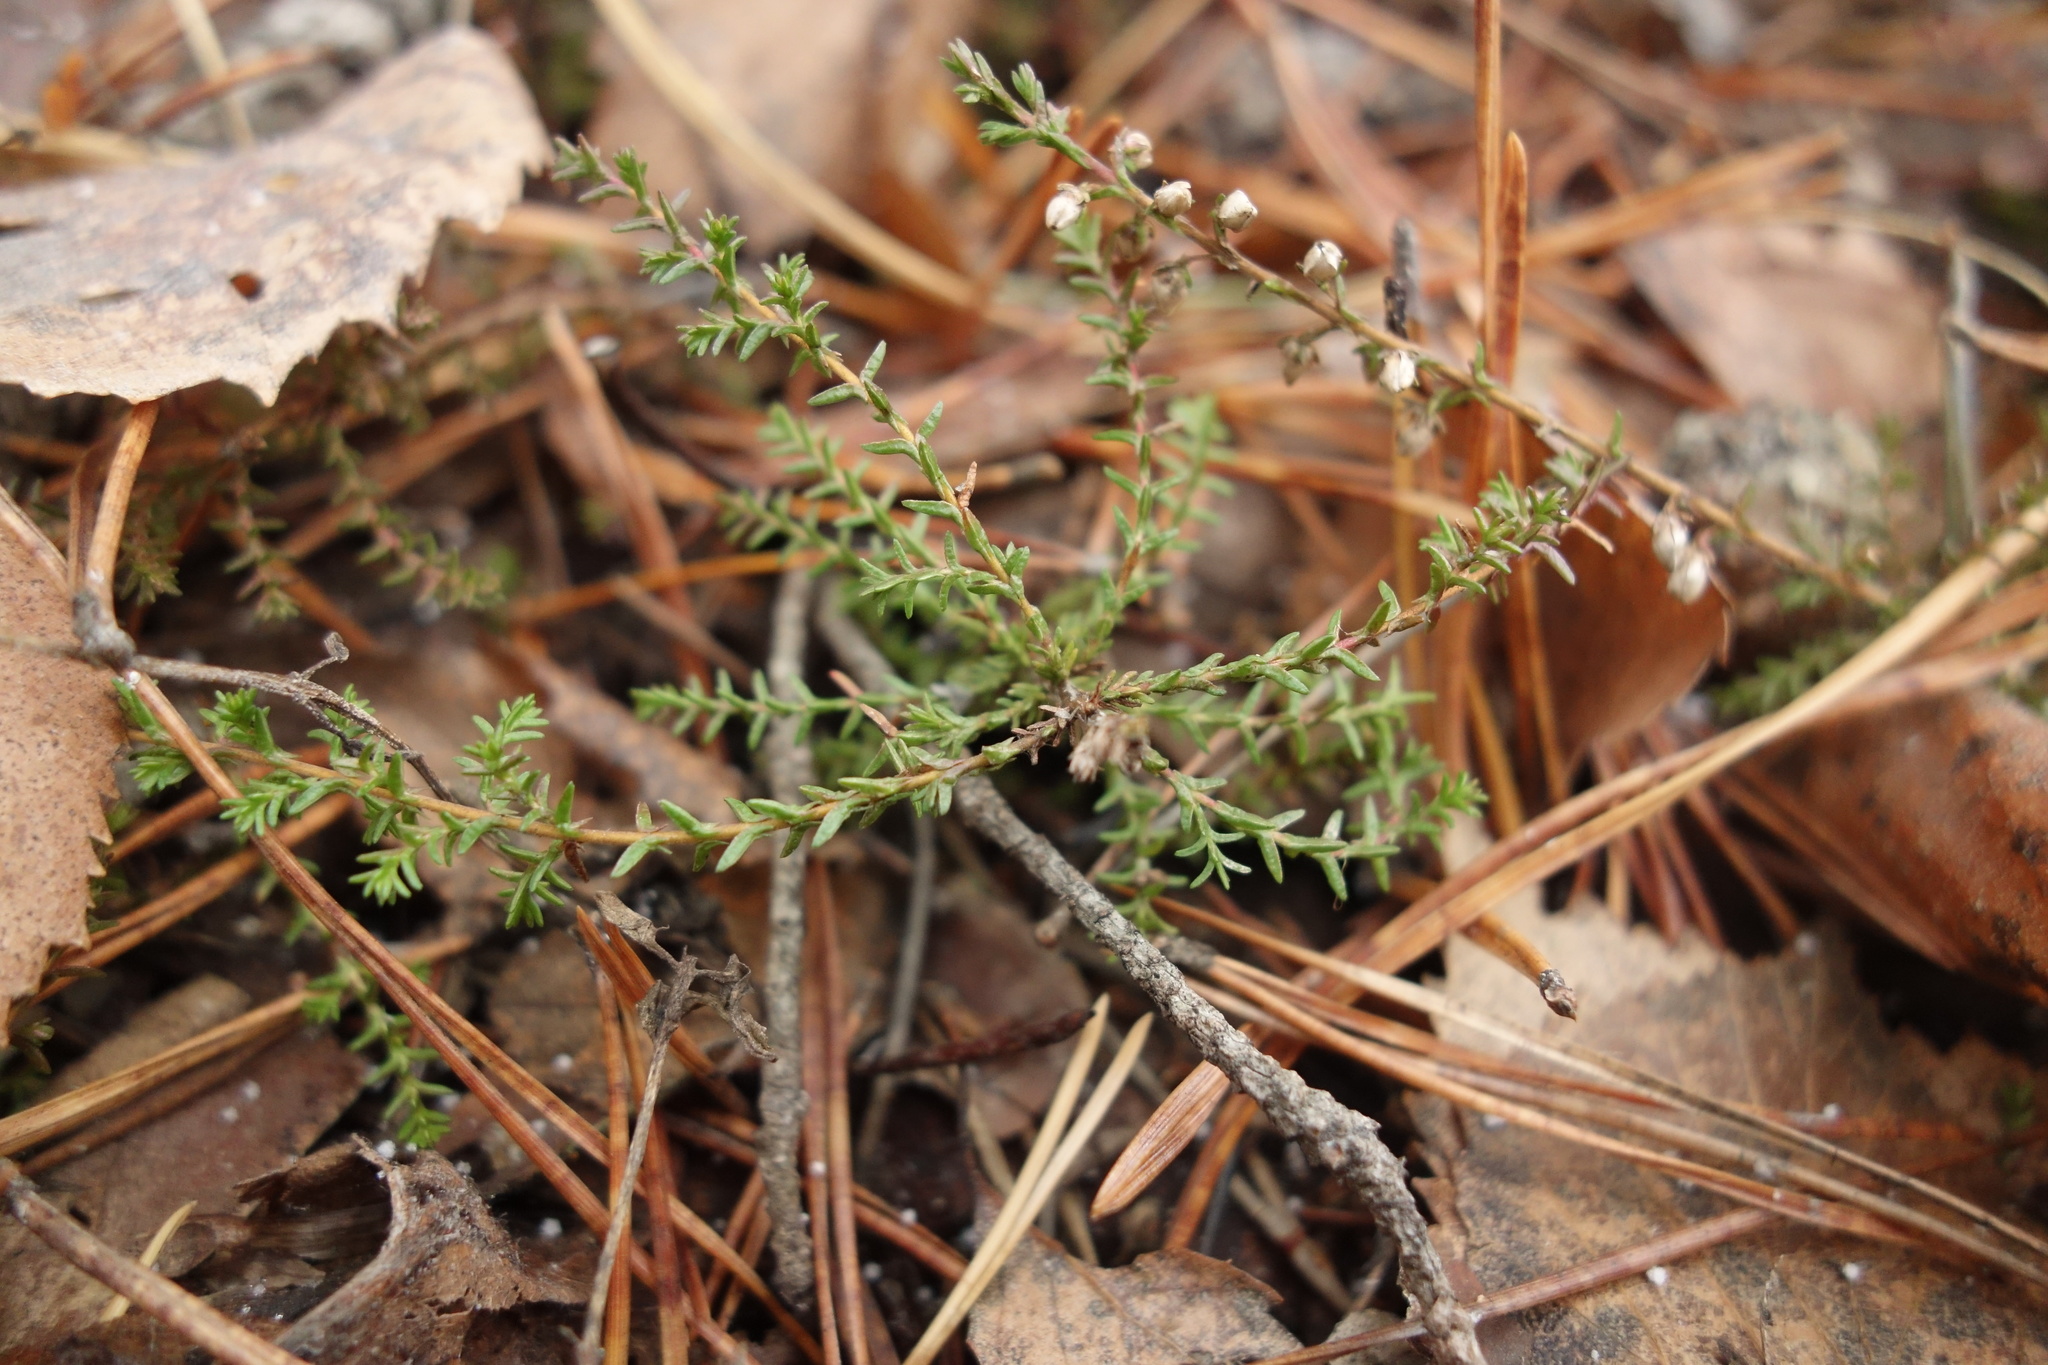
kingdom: Plantae
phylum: Tracheophyta
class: Magnoliopsida
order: Ericales
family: Ericaceae
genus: Calluna
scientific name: Calluna vulgaris
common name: Heather
